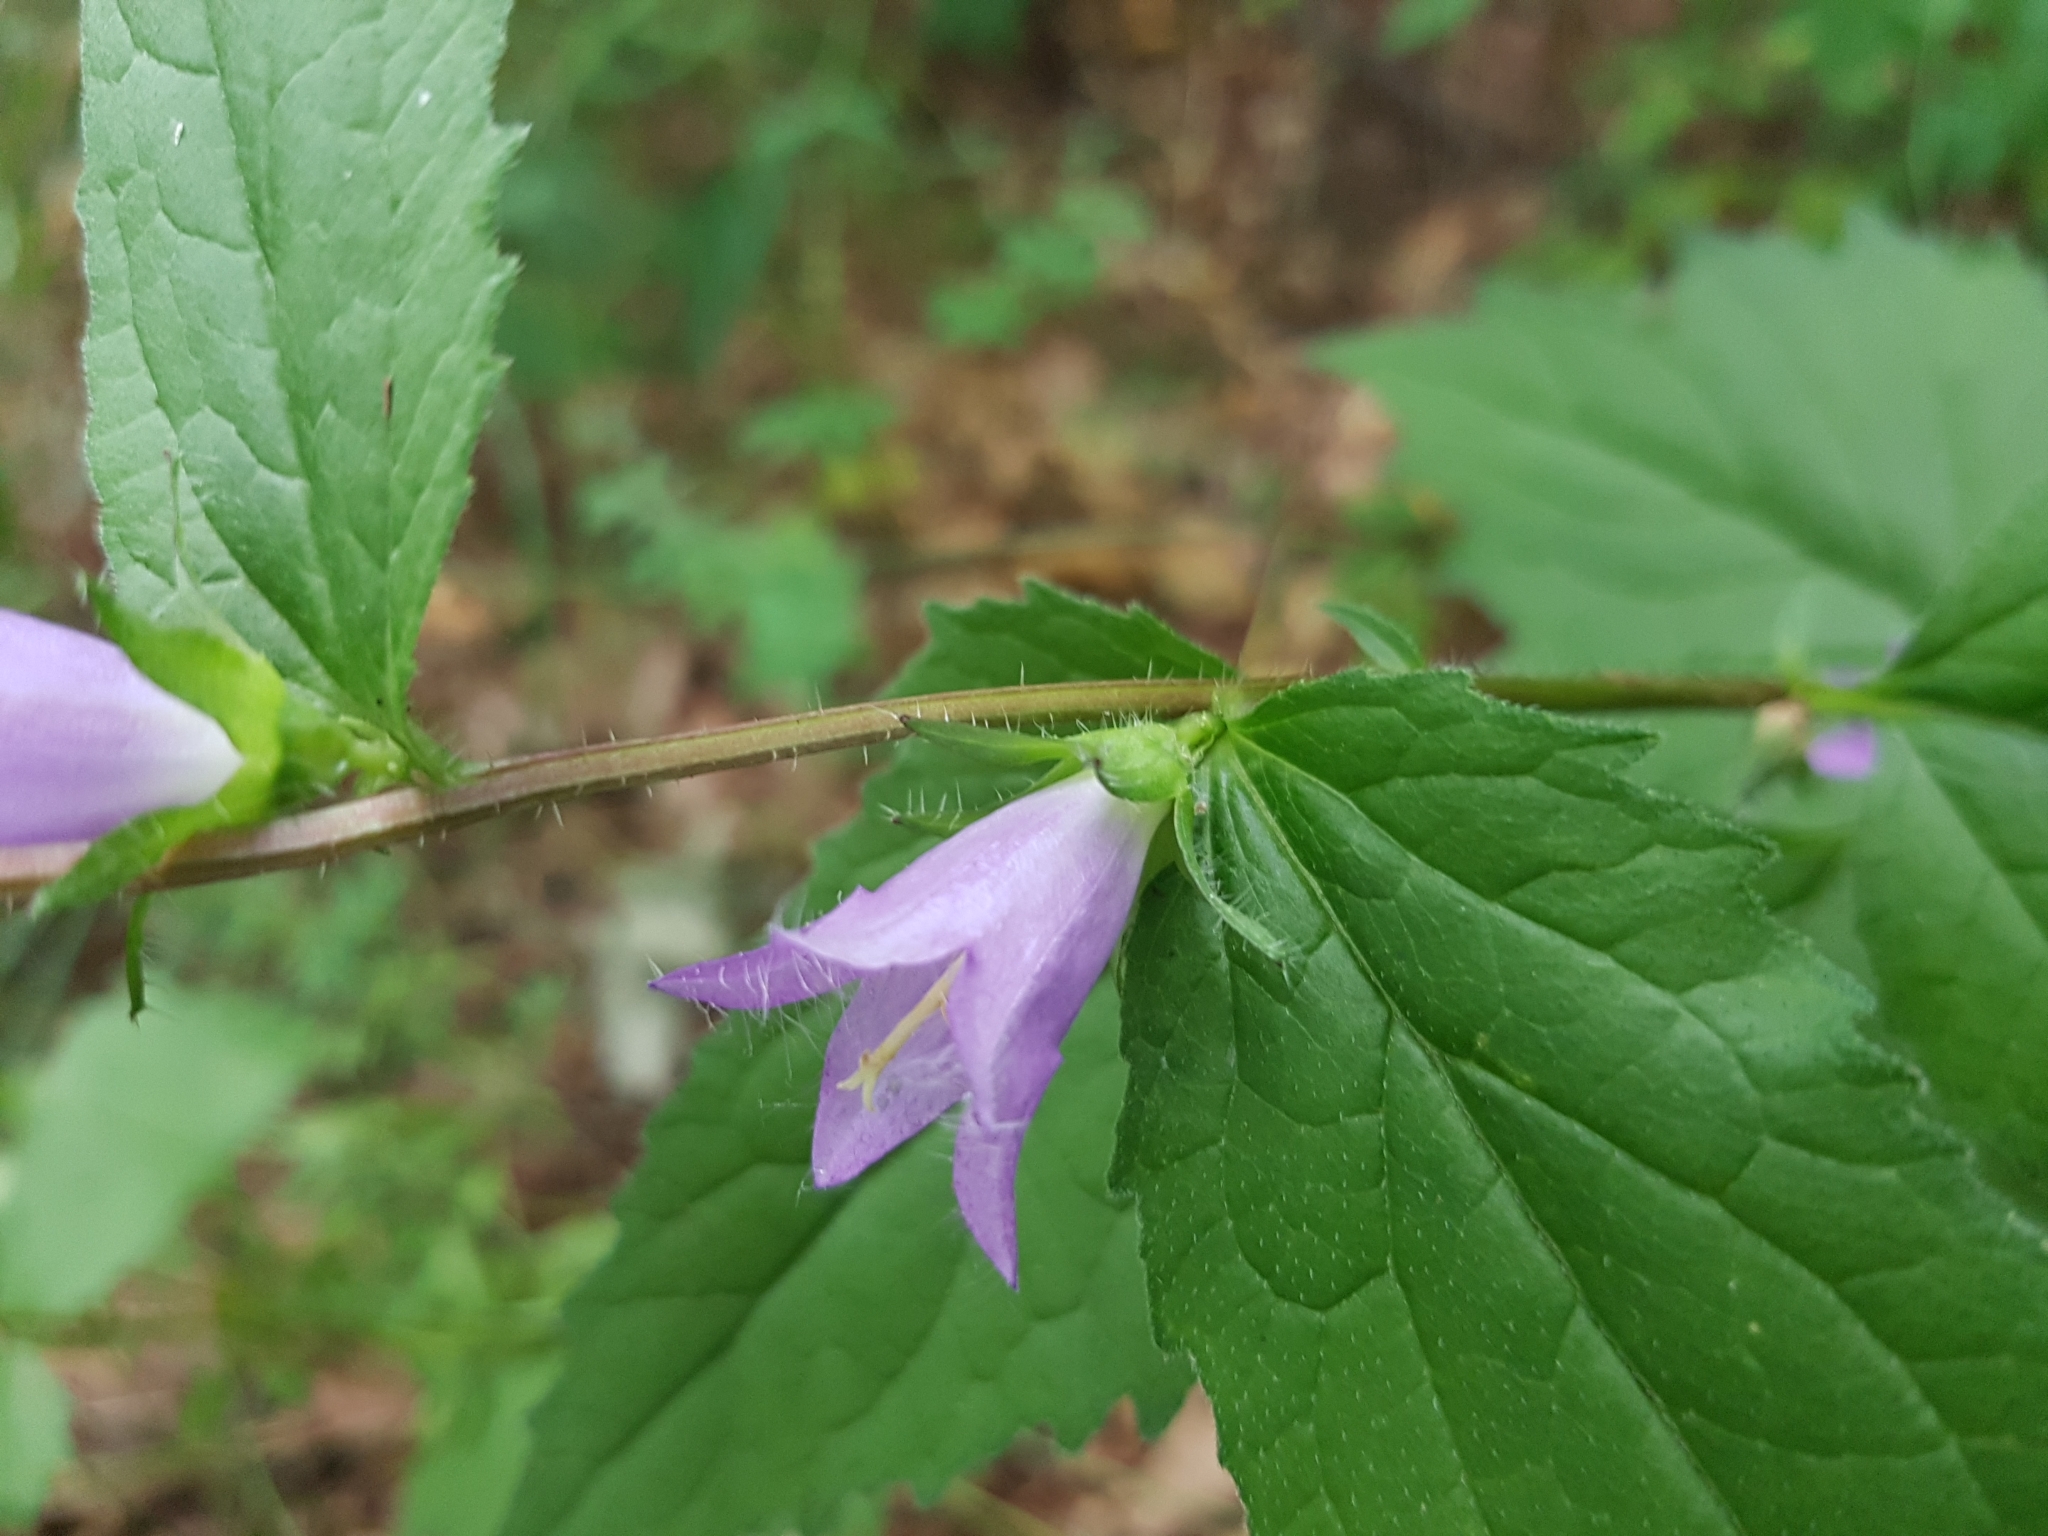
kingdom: Plantae
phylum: Tracheophyta
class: Magnoliopsida
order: Asterales
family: Campanulaceae
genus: Campanula
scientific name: Campanula trachelium
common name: Nettle-leaved bellflower
